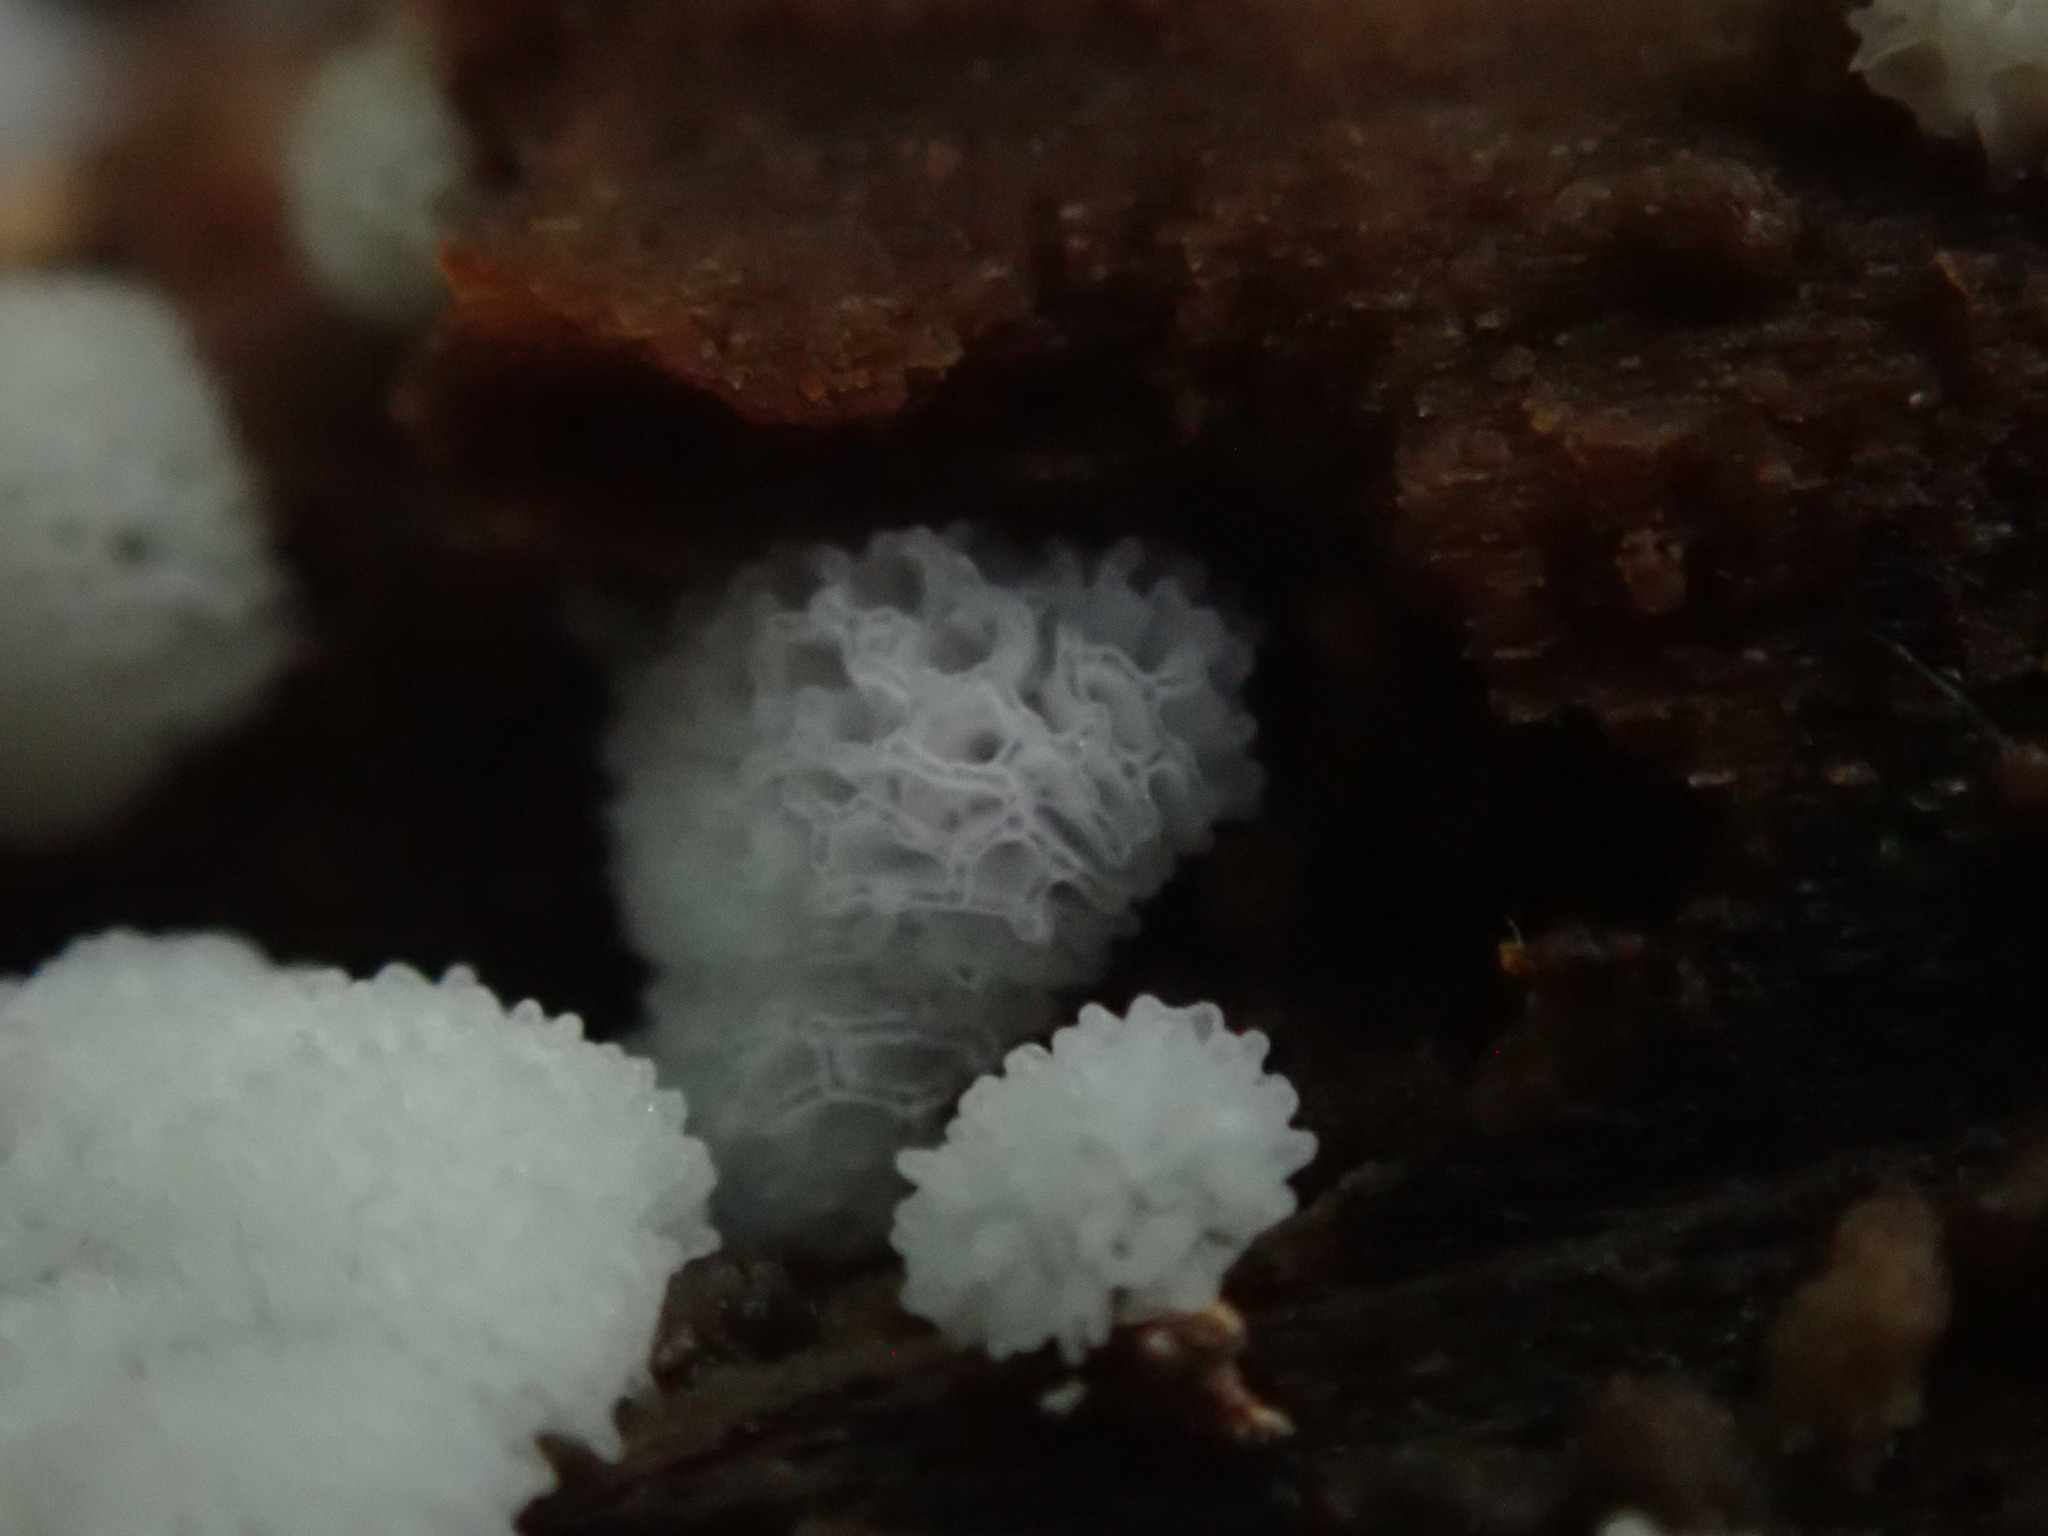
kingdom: Protozoa
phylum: Mycetozoa
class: Protosteliomycetes
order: Ceratiomyxales
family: Ceratiomyxaceae
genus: Ceratiomyxa
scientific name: Ceratiomyxa fruticulosa
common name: Honeycomb coral slime mold
